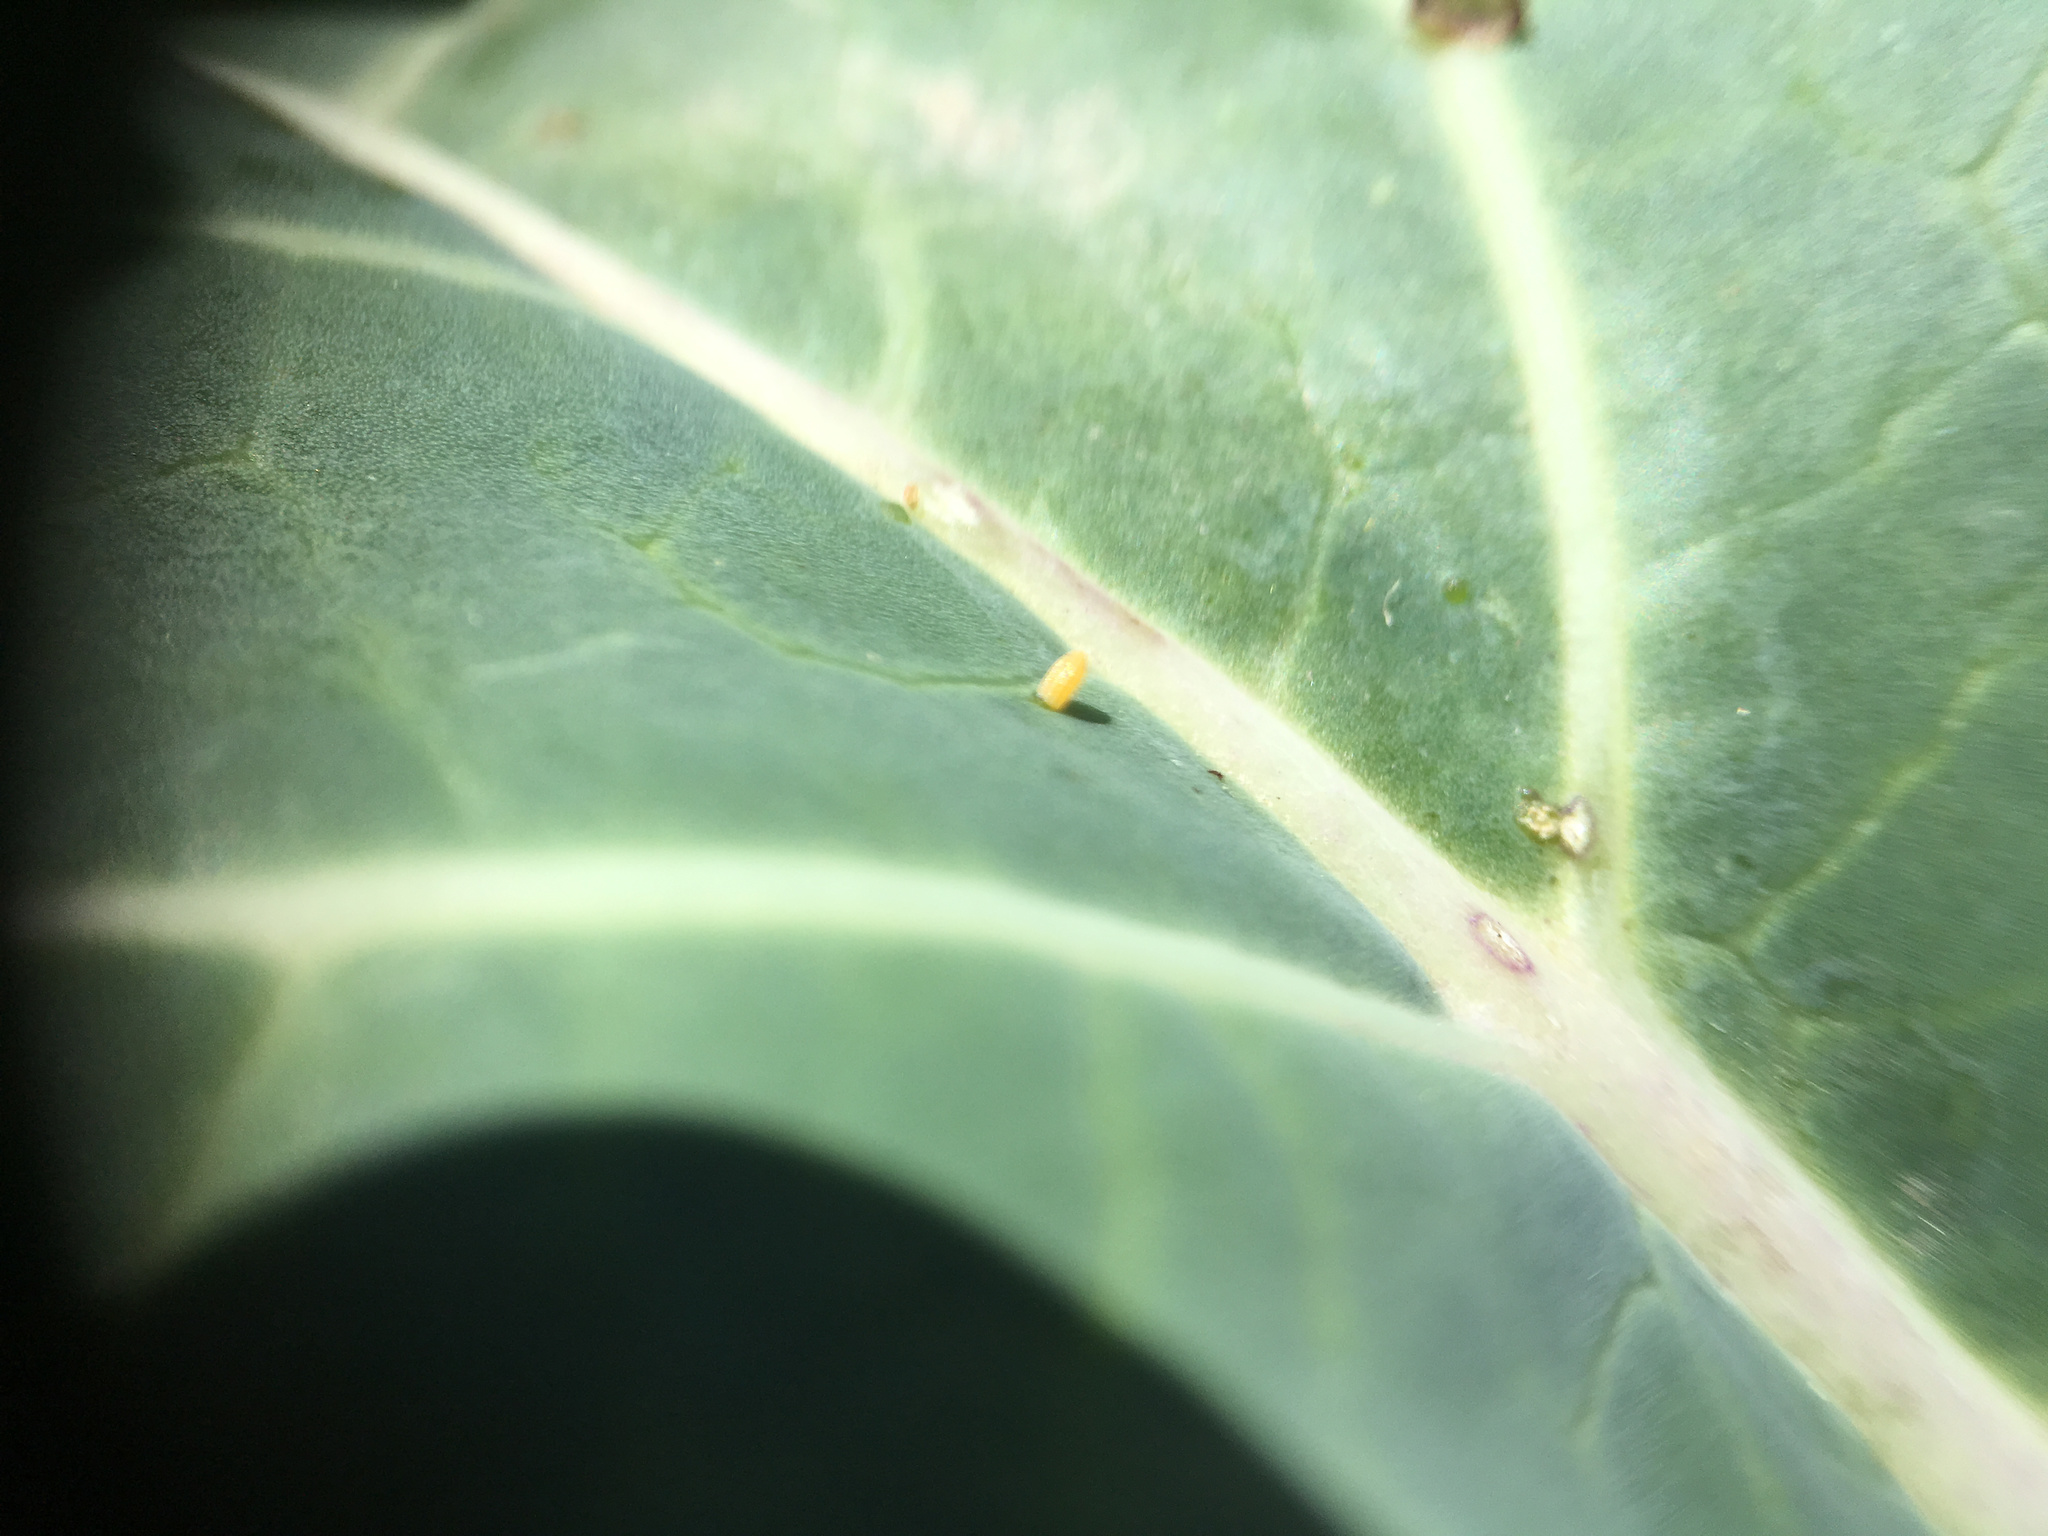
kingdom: Animalia
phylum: Arthropoda
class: Insecta
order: Lepidoptera
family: Pieridae
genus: Pieris
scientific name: Pieris rapae
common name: Small white
